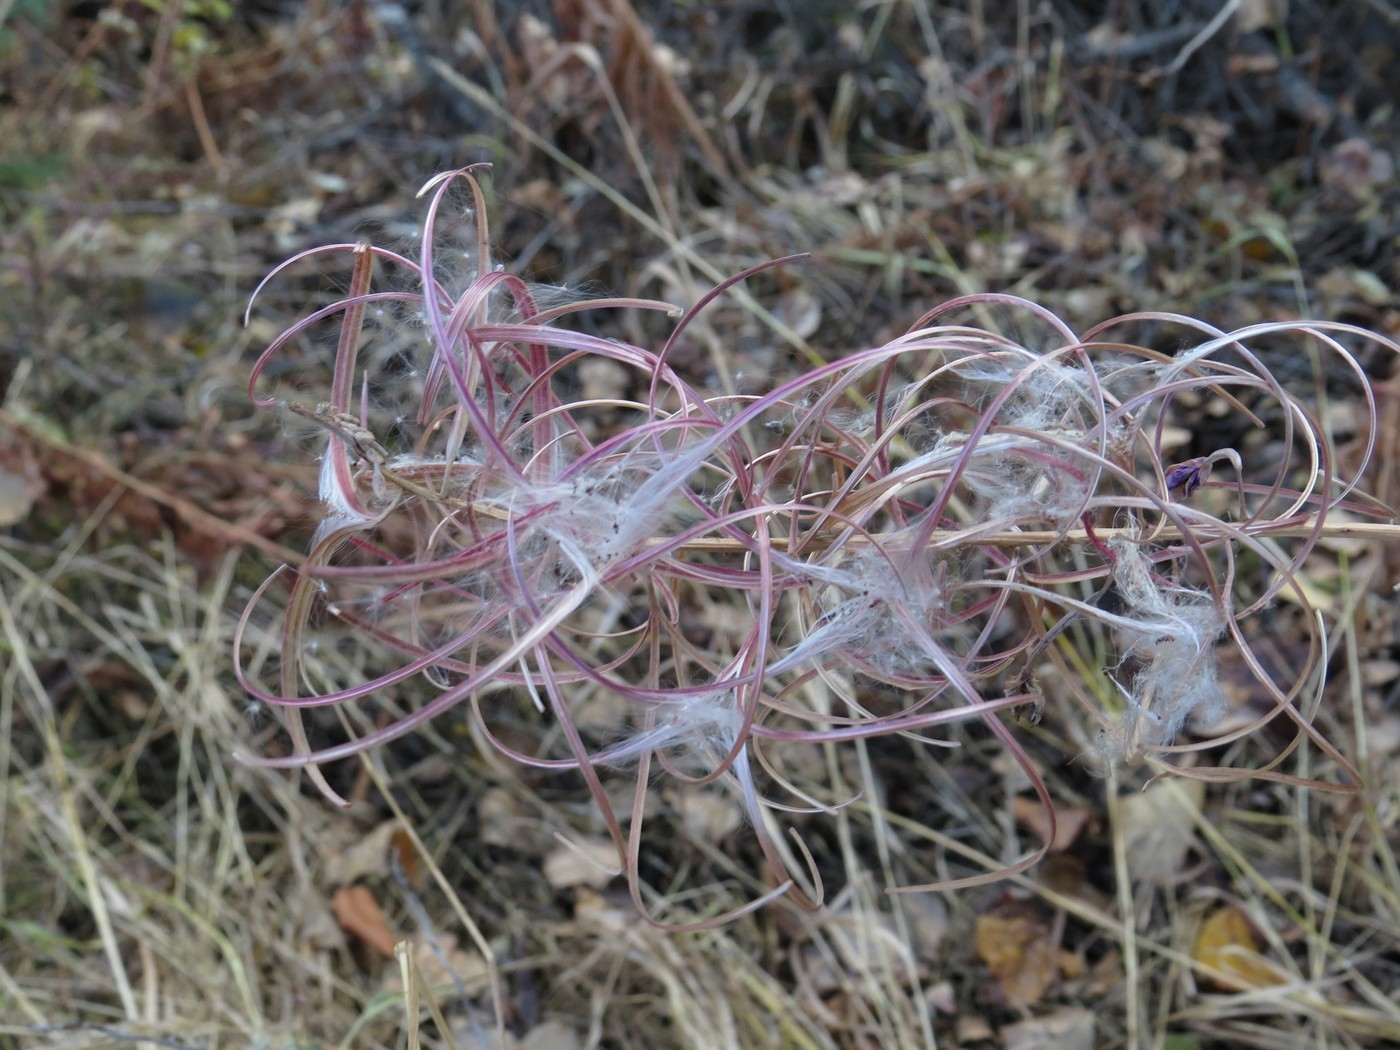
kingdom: Plantae
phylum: Tracheophyta
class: Magnoliopsida
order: Myrtales
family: Onagraceae
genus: Chamaenerion
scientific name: Chamaenerion angustifolium
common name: Fireweed
